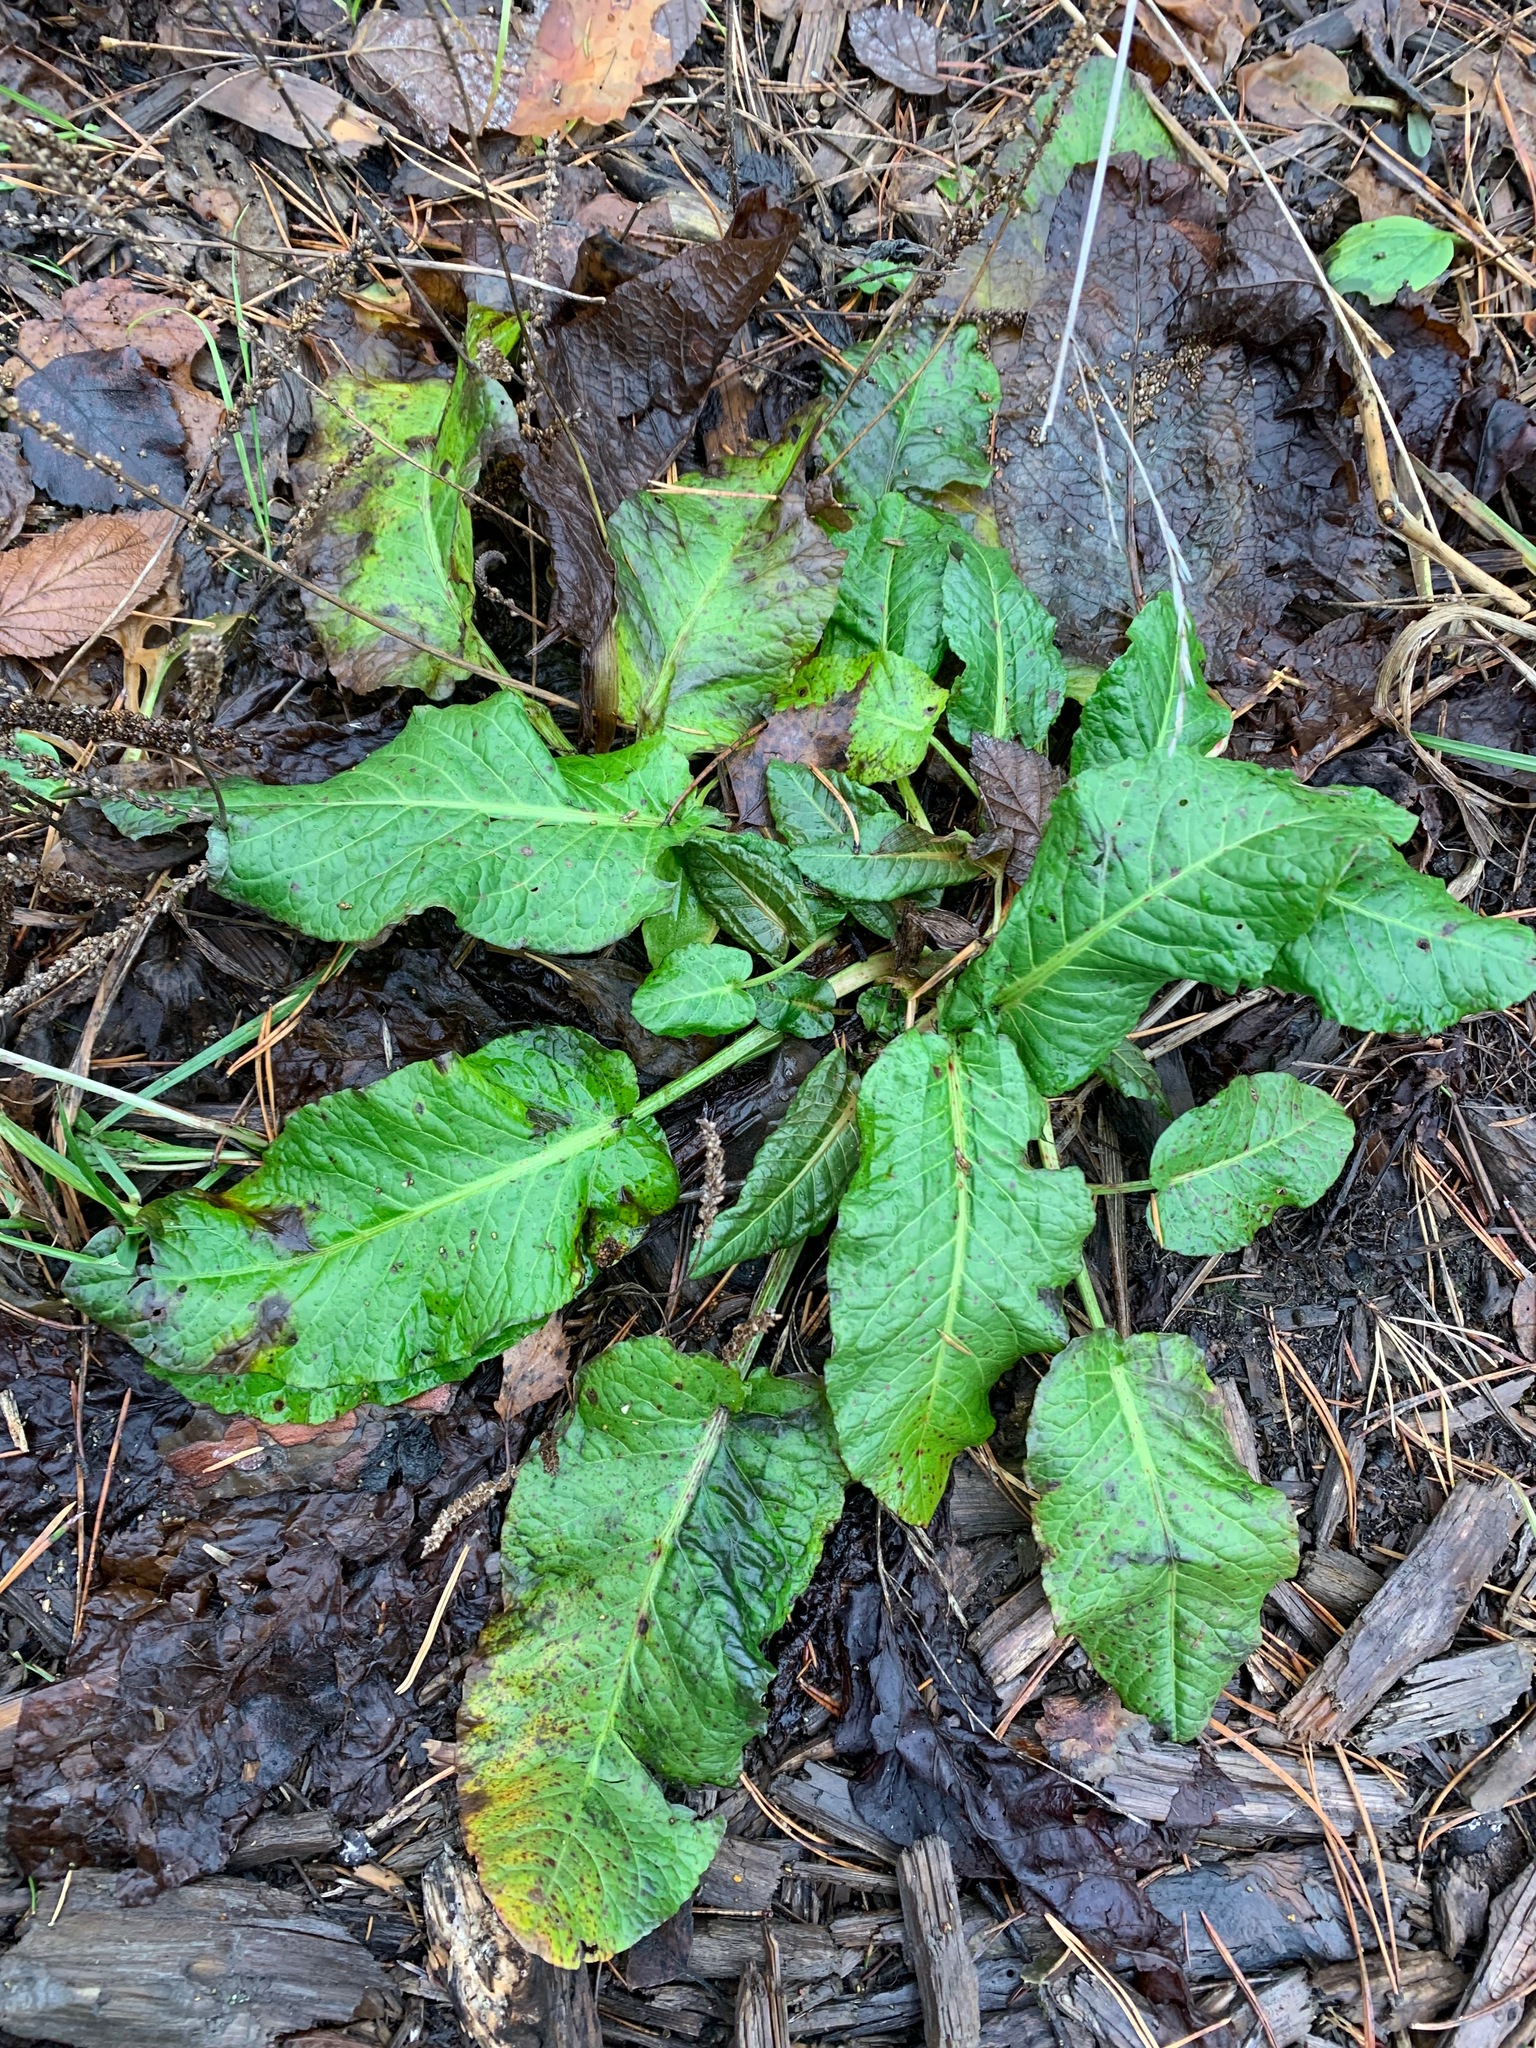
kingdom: Plantae
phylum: Tracheophyta
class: Magnoliopsida
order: Caryophyllales
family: Polygonaceae
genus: Rumex
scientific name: Rumex obtusifolius
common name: Bitter dock
